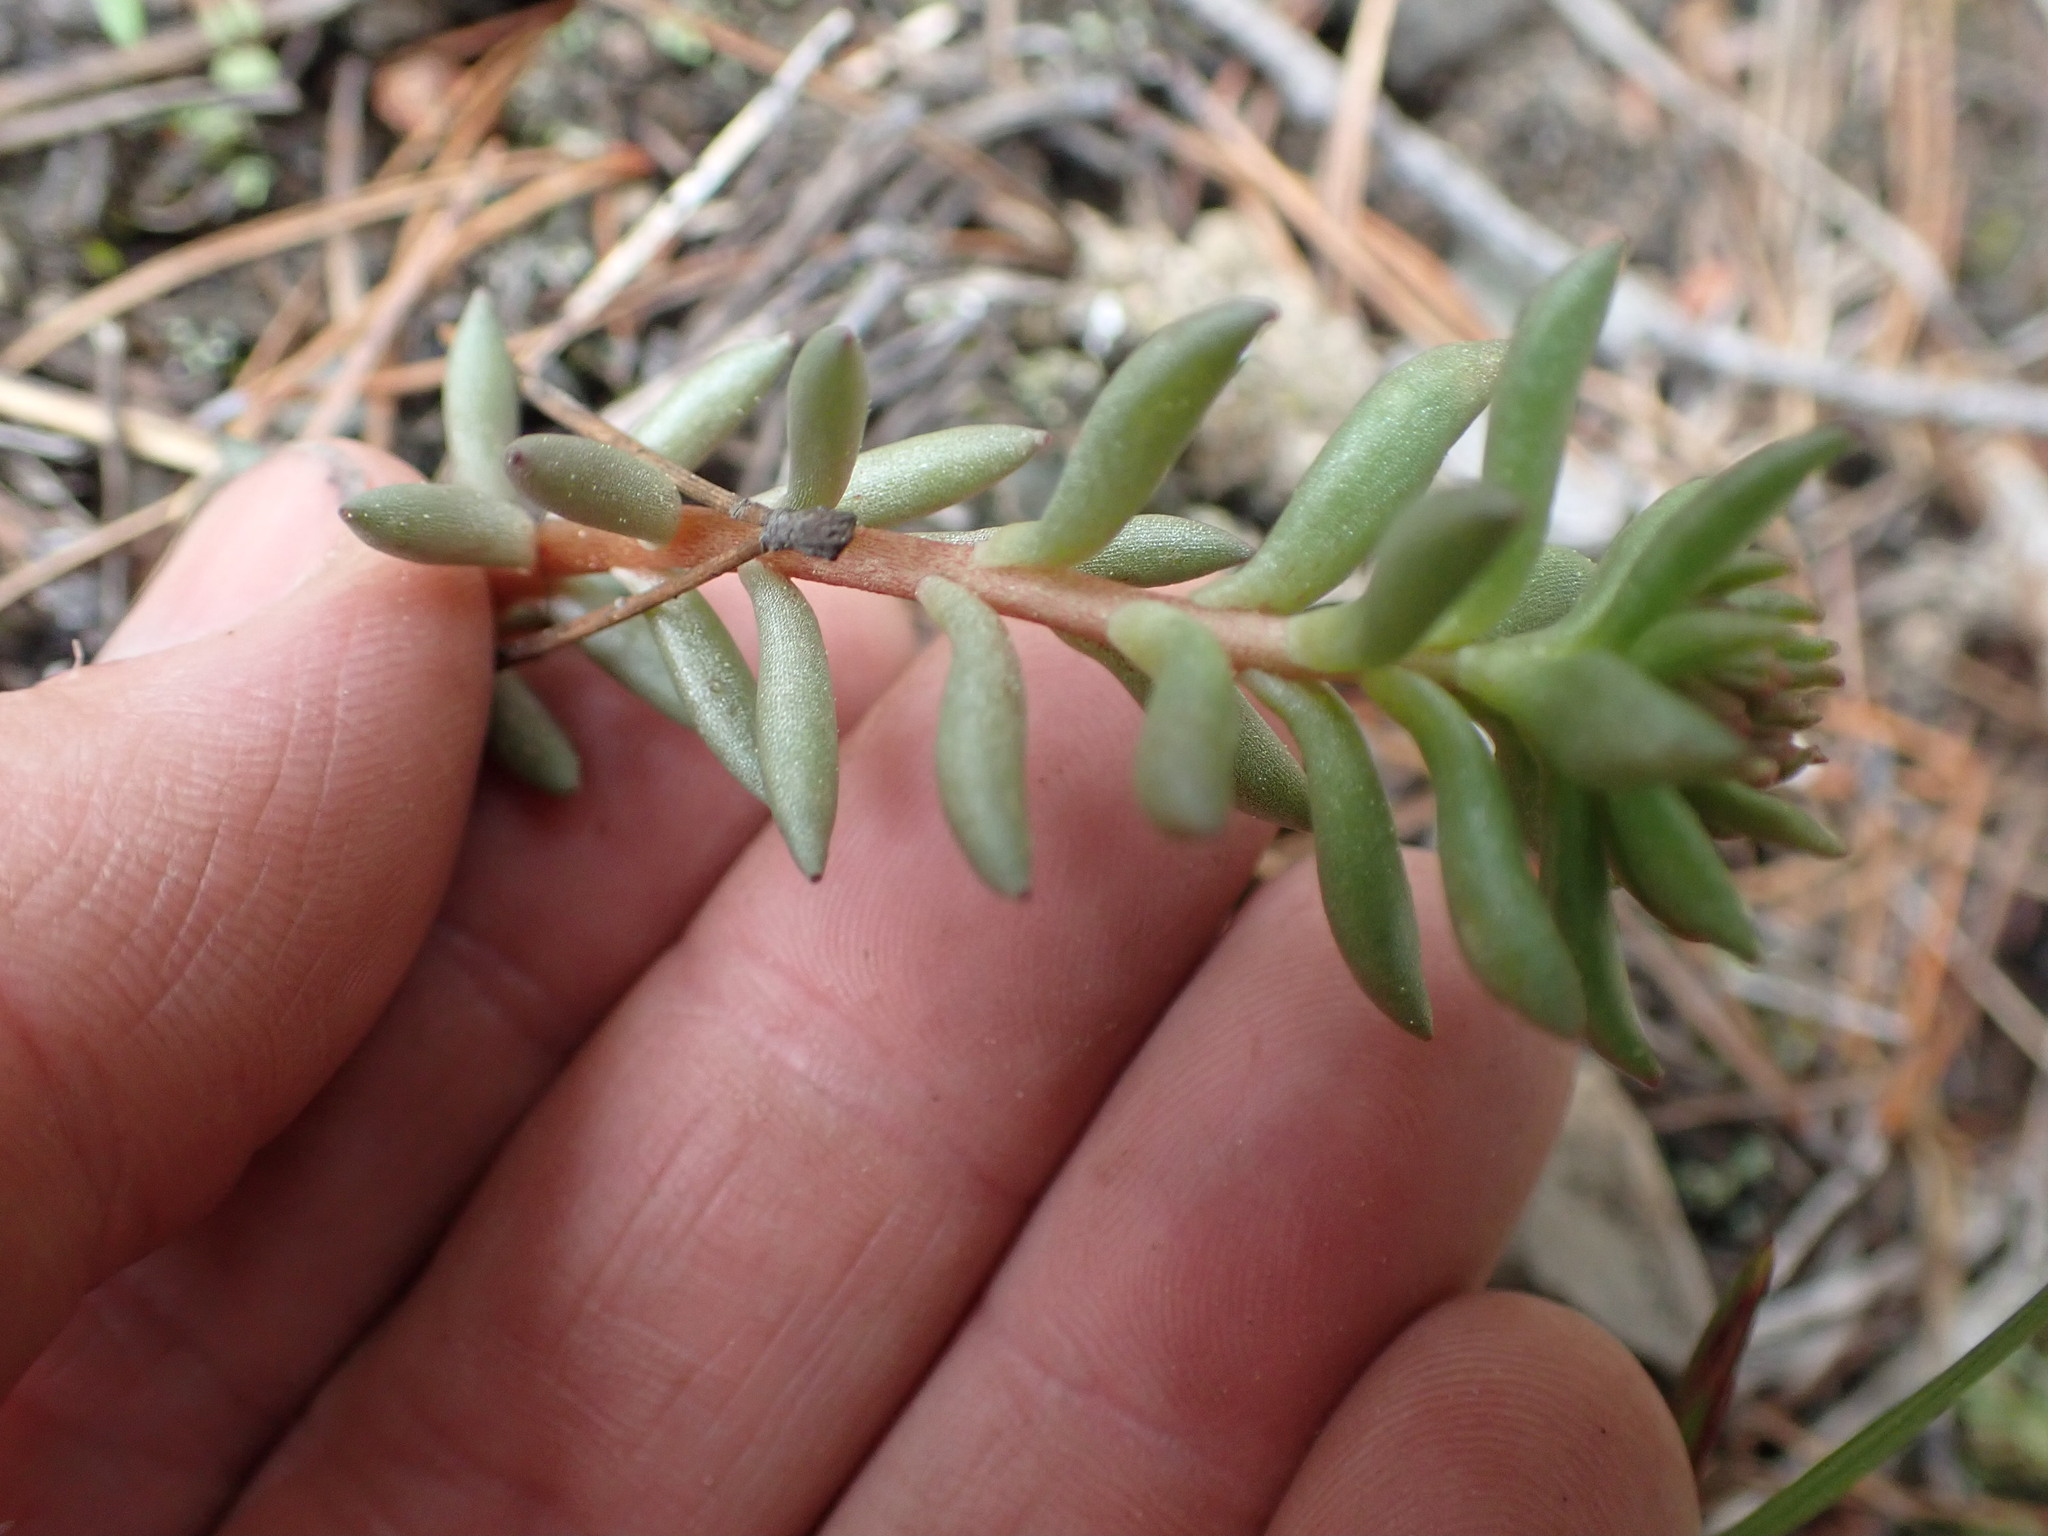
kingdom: Plantae
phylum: Tracheophyta
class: Magnoliopsida
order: Saxifragales
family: Crassulaceae
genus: Sedum
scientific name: Sedum lanceolatum
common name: Common stonecrop
